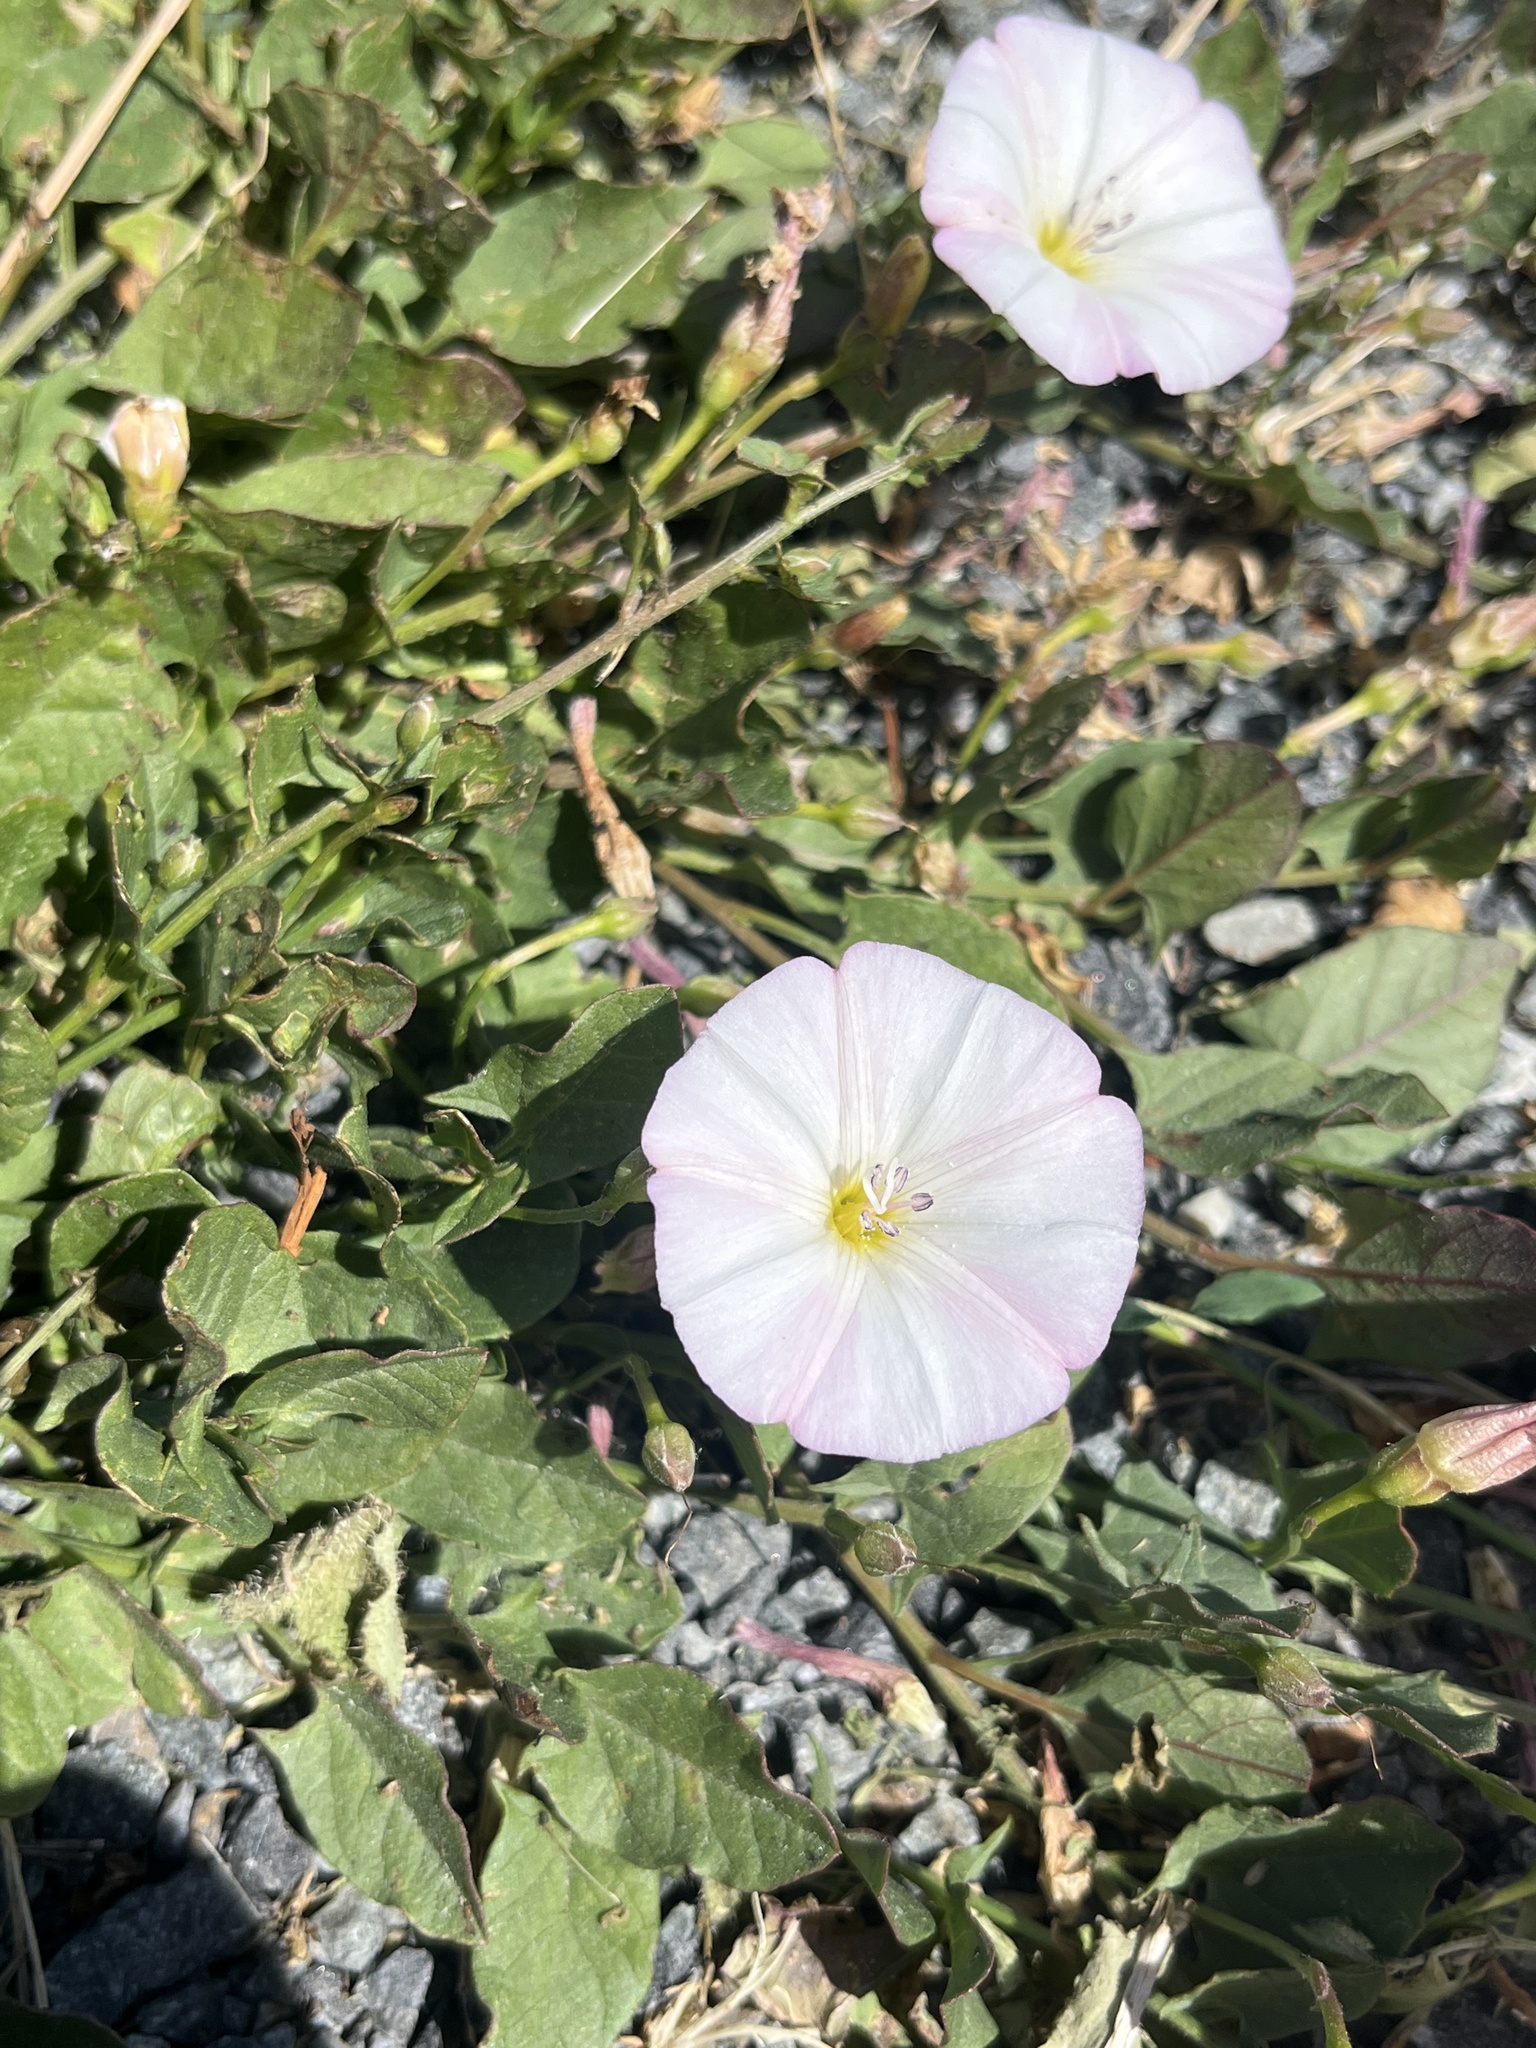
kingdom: Plantae
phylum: Tracheophyta
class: Magnoliopsida
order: Solanales
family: Convolvulaceae
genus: Convolvulus
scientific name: Convolvulus arvensis
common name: Field bindweed
